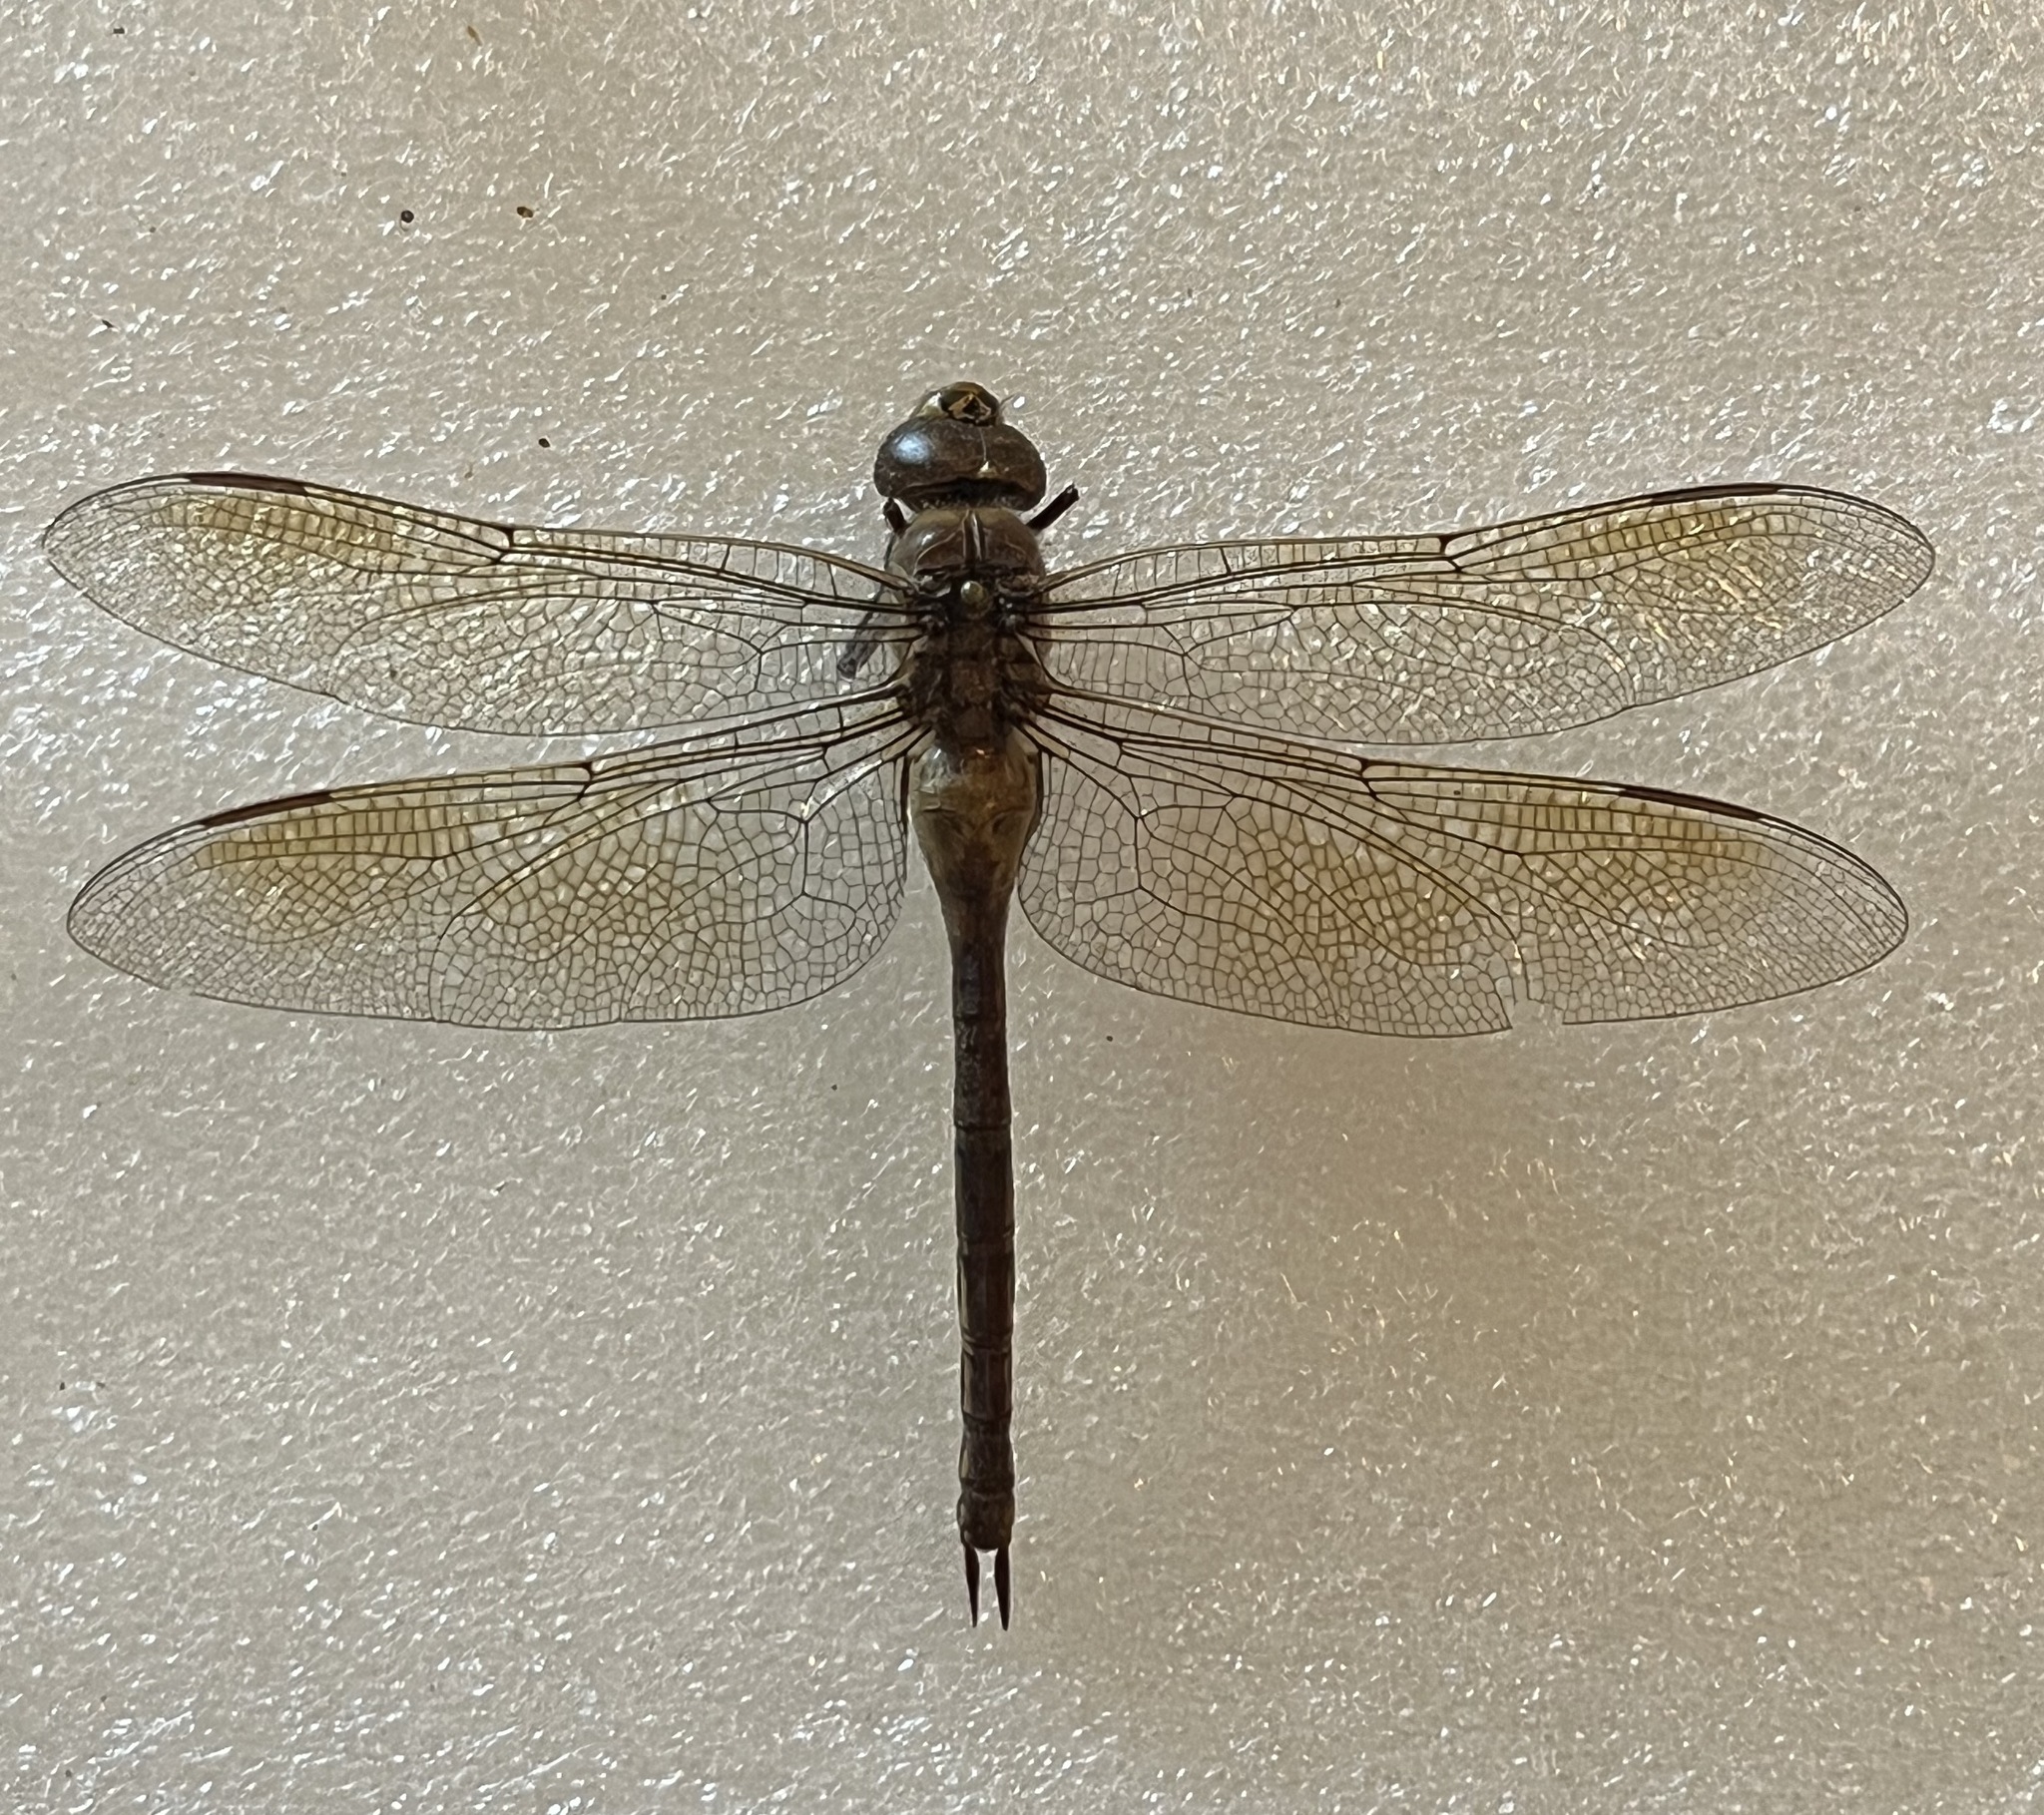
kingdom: Animalia
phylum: Arthropoda
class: Insecta
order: Odonata
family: Aeshnidae
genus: Anax
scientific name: Anax junius
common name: Common green darner
